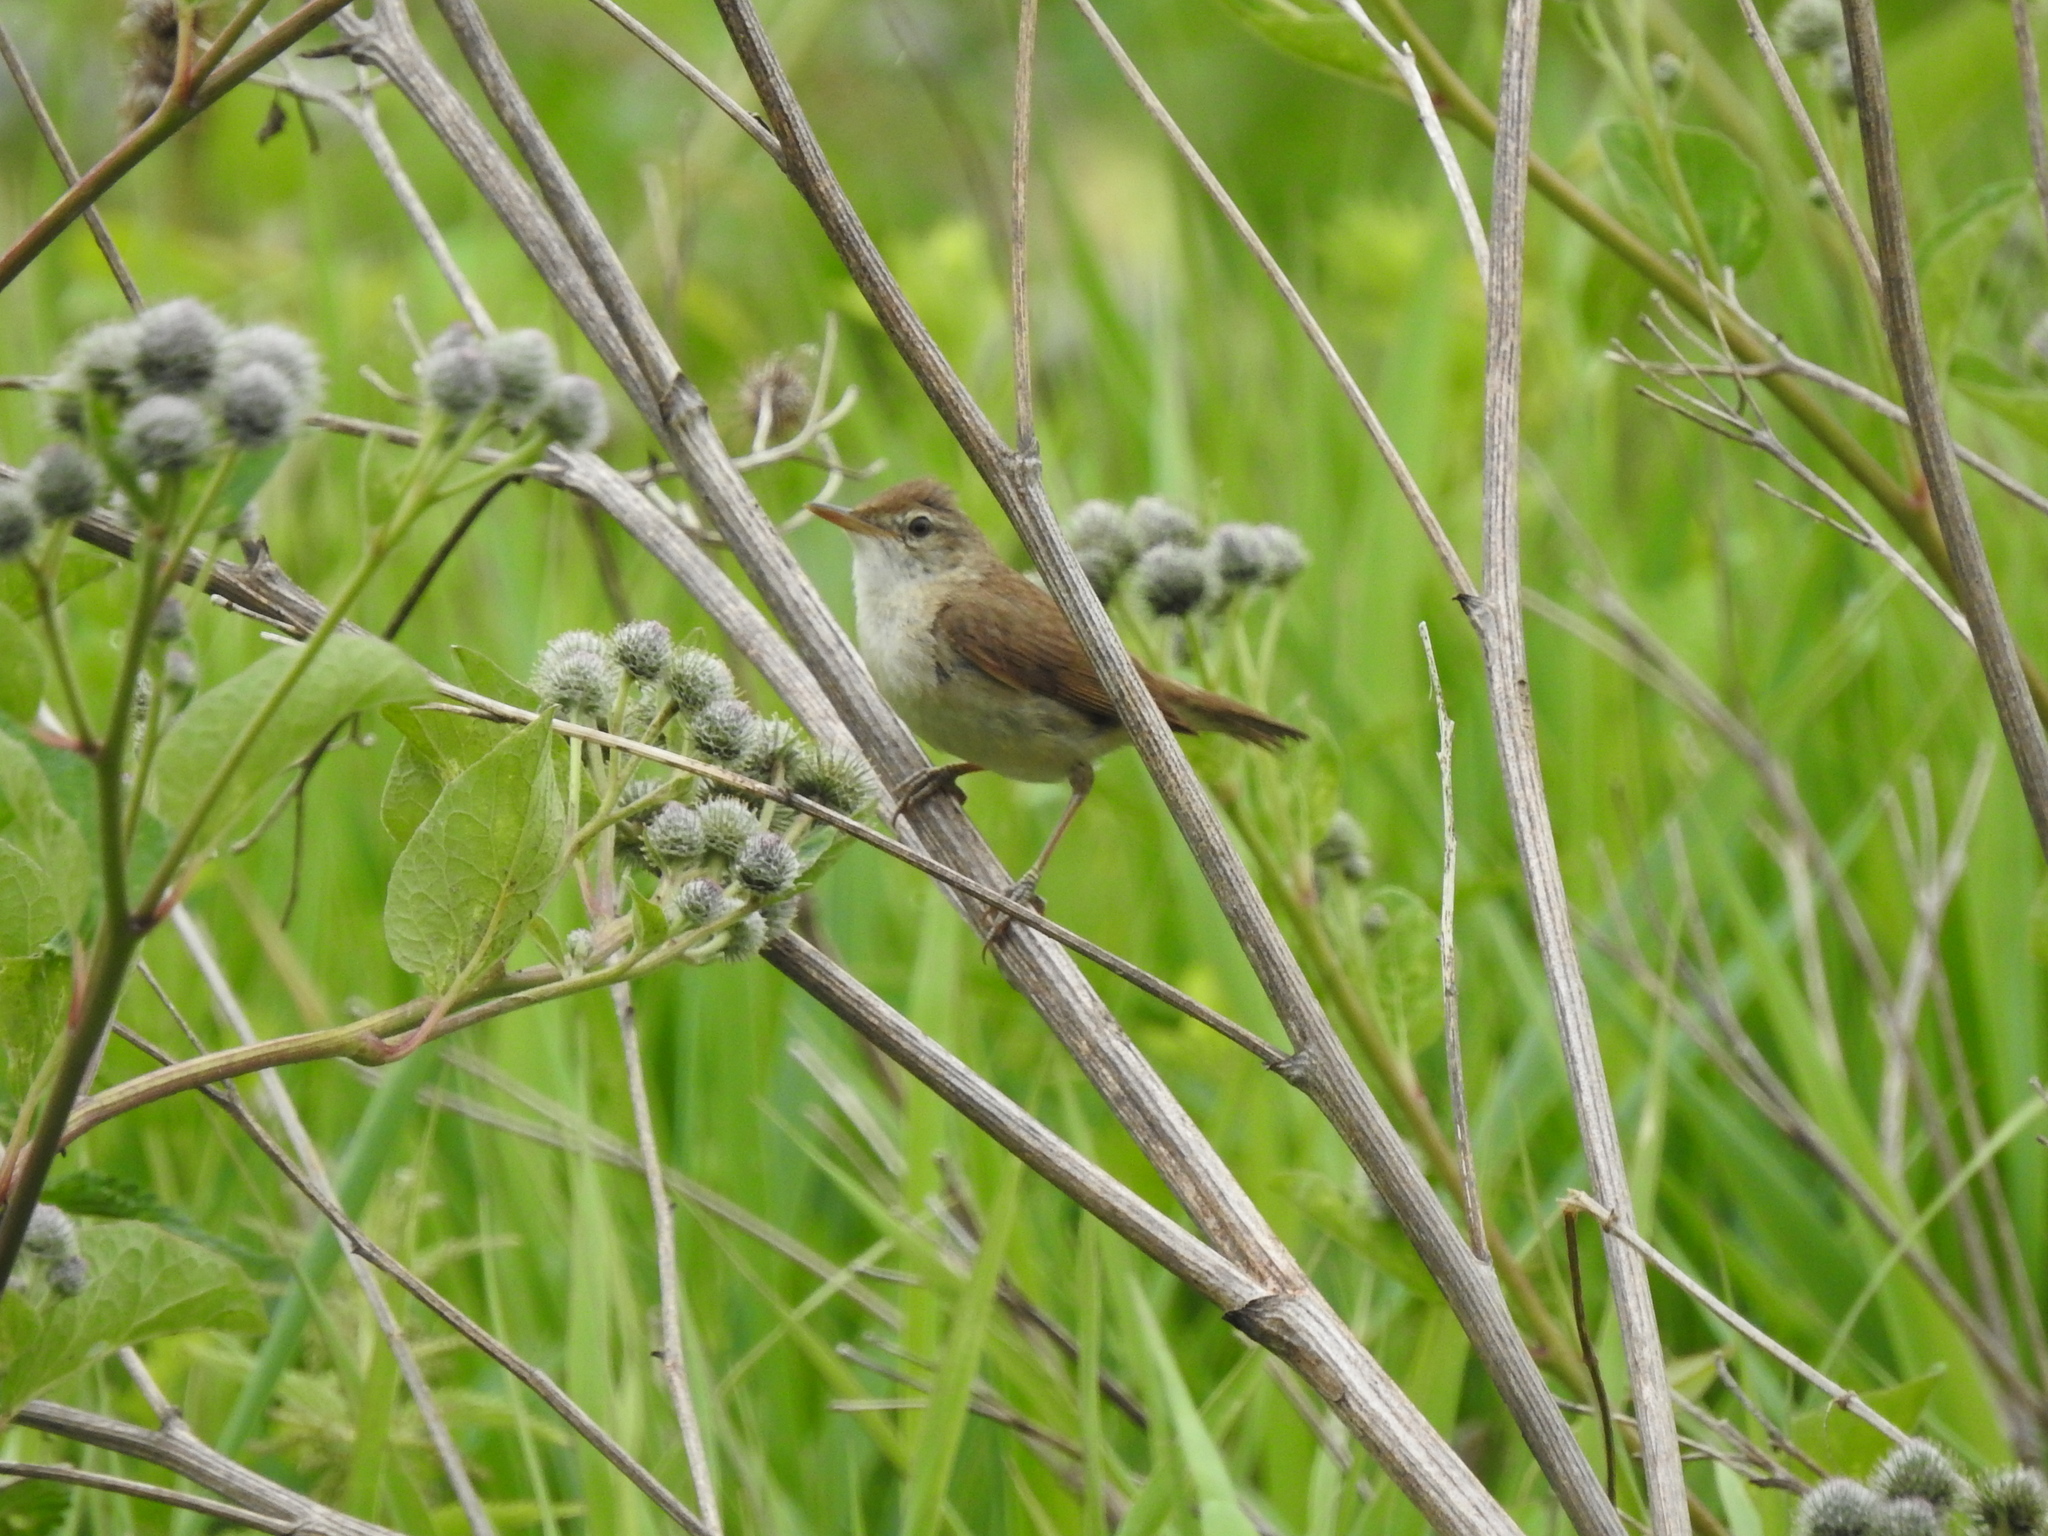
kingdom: Animalia
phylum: Chordata
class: Aves
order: Passeriformes
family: Acrocephalidae
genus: Acrocephalus
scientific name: Acrocephalus dumetorum
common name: Blyth's reed warbler
